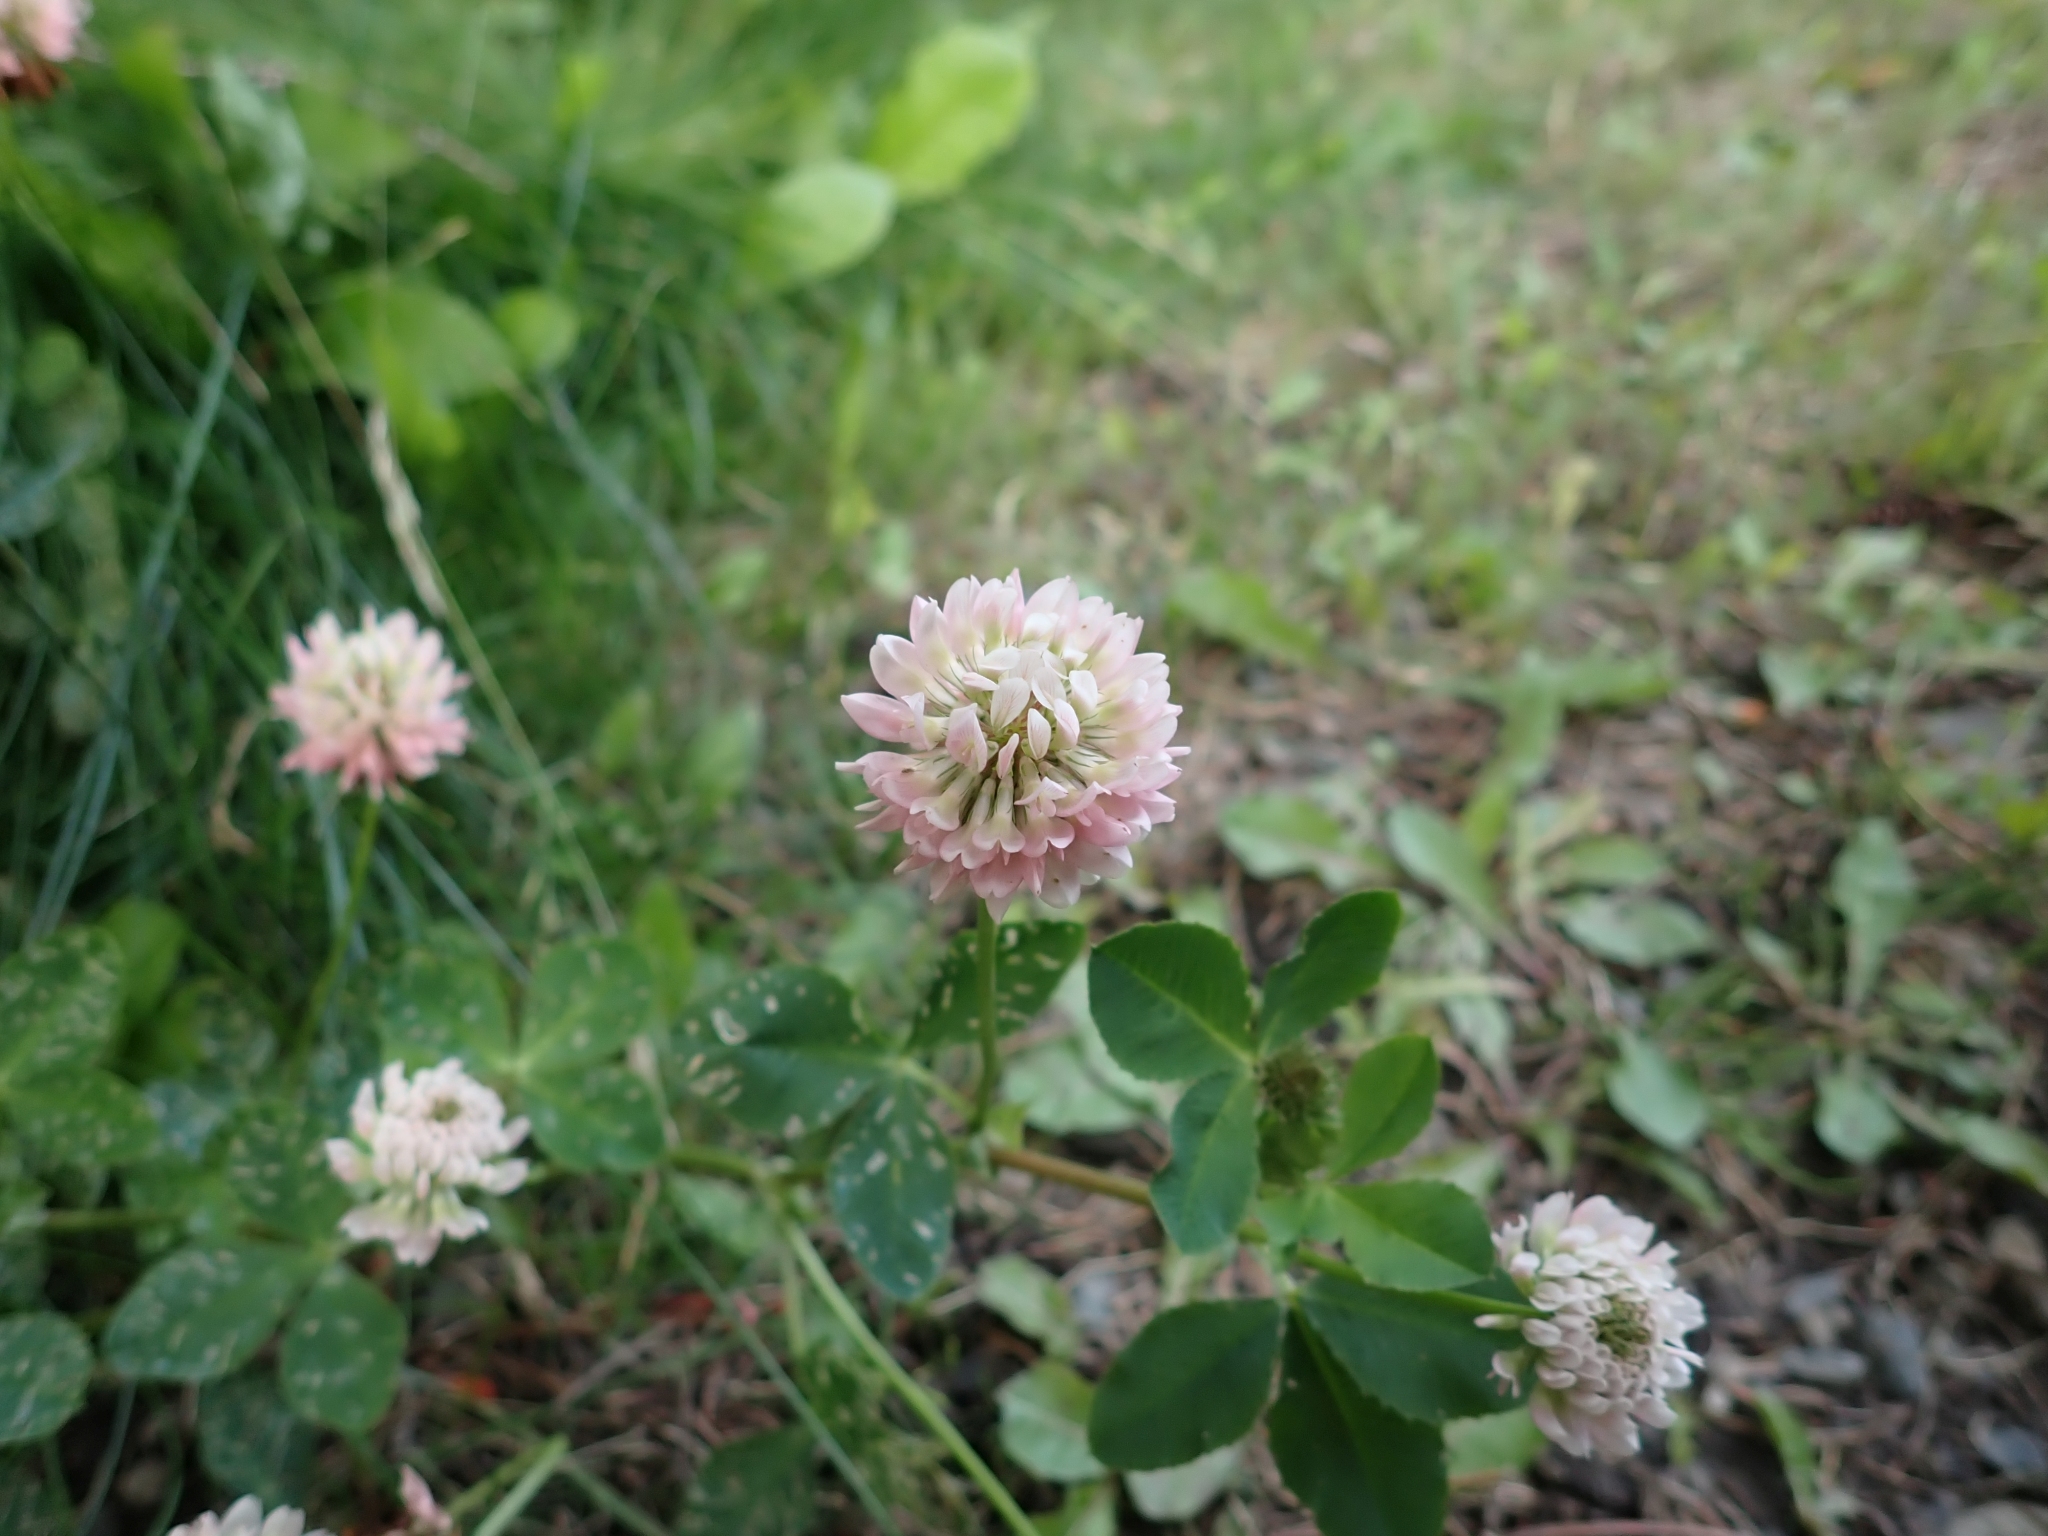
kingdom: Plantae
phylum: Tracheophyta
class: Magnoliopsida
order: Fabales
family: Fabaceae
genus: Trifolium
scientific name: Trifolium hybridum
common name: Alsike clover
